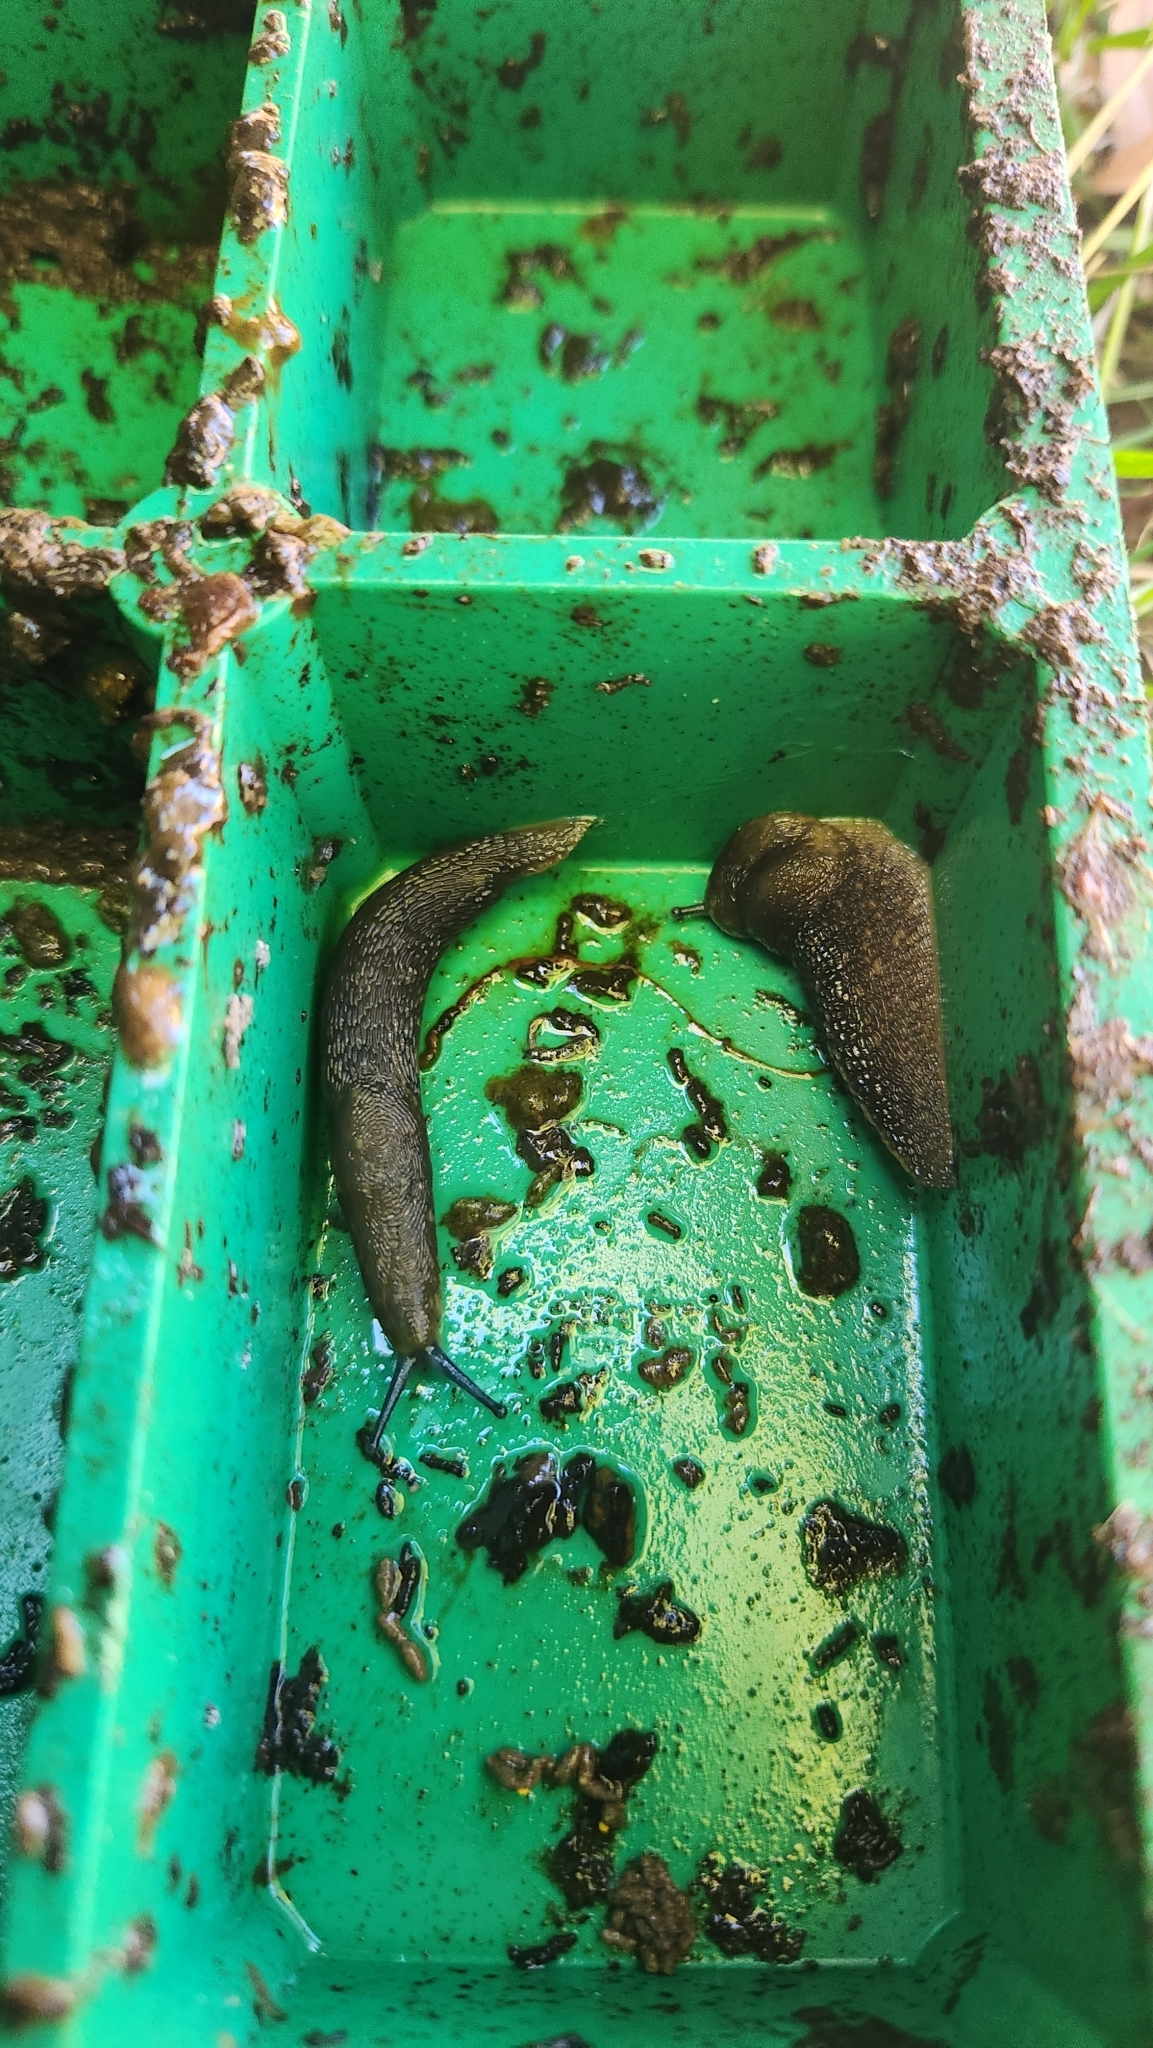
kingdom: Animalia
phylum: Mollusca
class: Gastropoda
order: Stylommatophora
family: Limacidae
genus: Limacus
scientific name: Limacus flavus
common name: Yellow gardenslug
